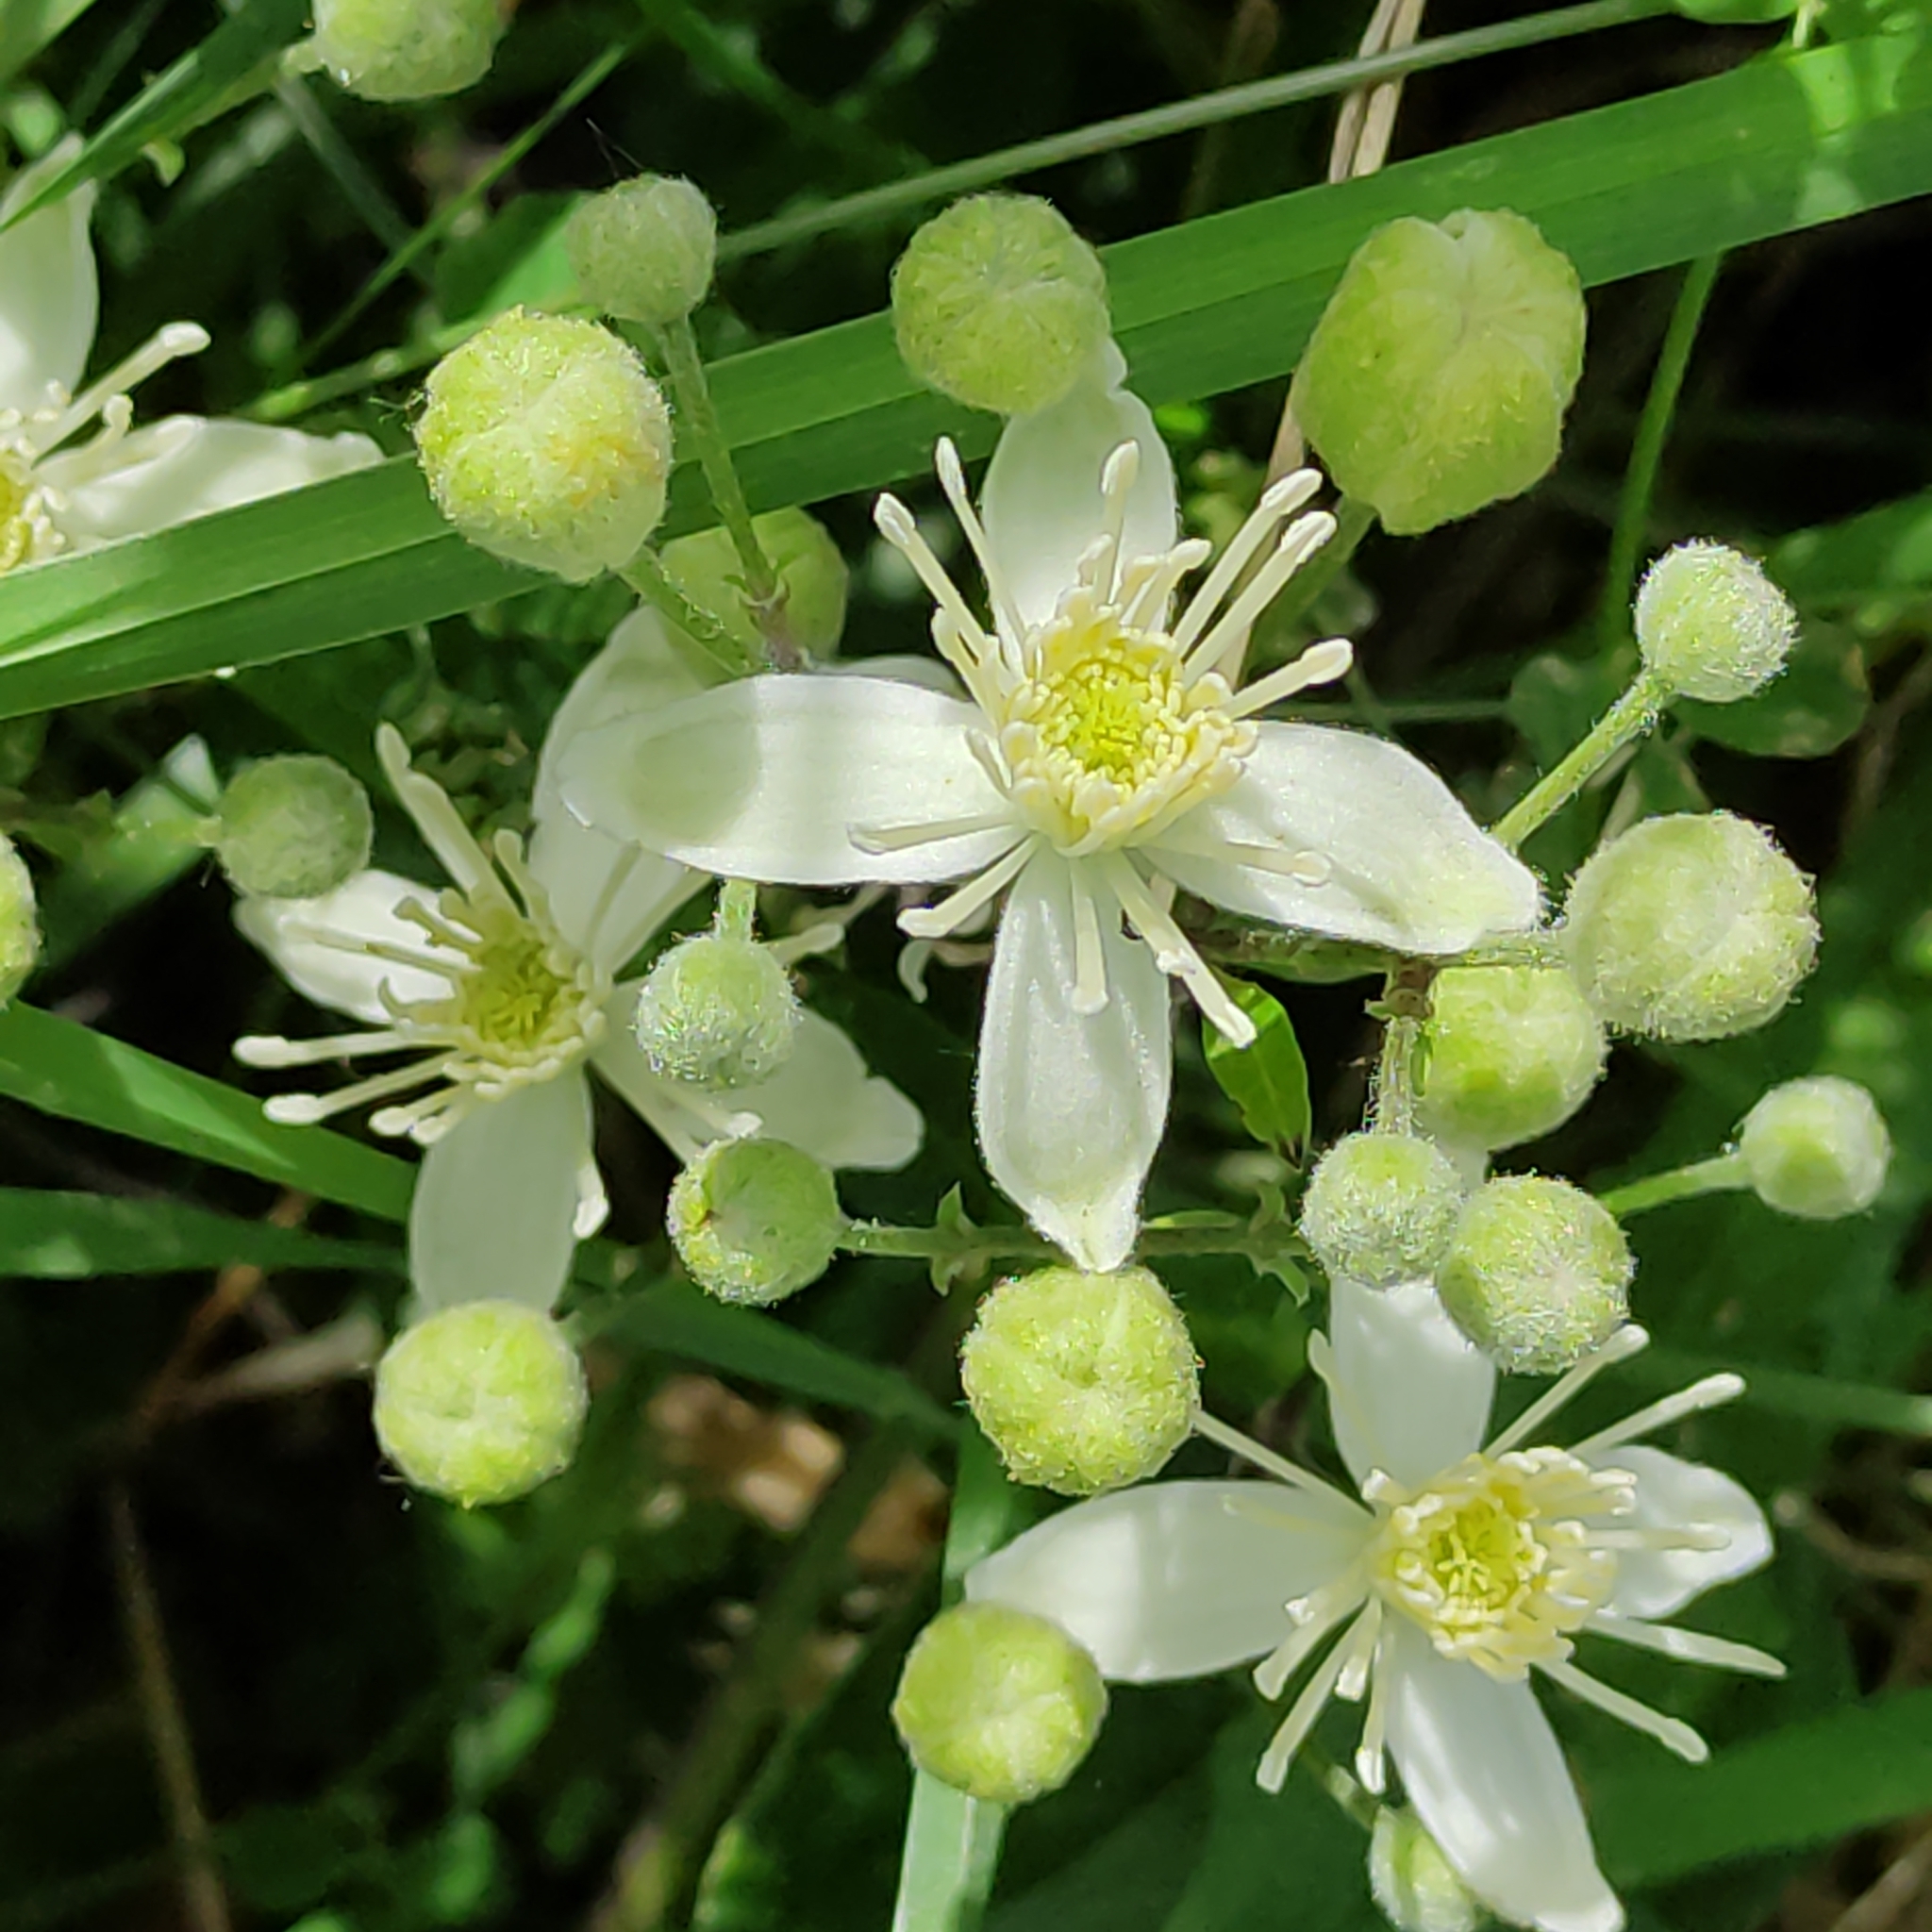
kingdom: Plantae
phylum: Tracheophyta
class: Magnoliopsida
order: Ranunculales
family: Ranunculaceae
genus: Clematis
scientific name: Clematis vitalba
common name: Evergreen clematis
